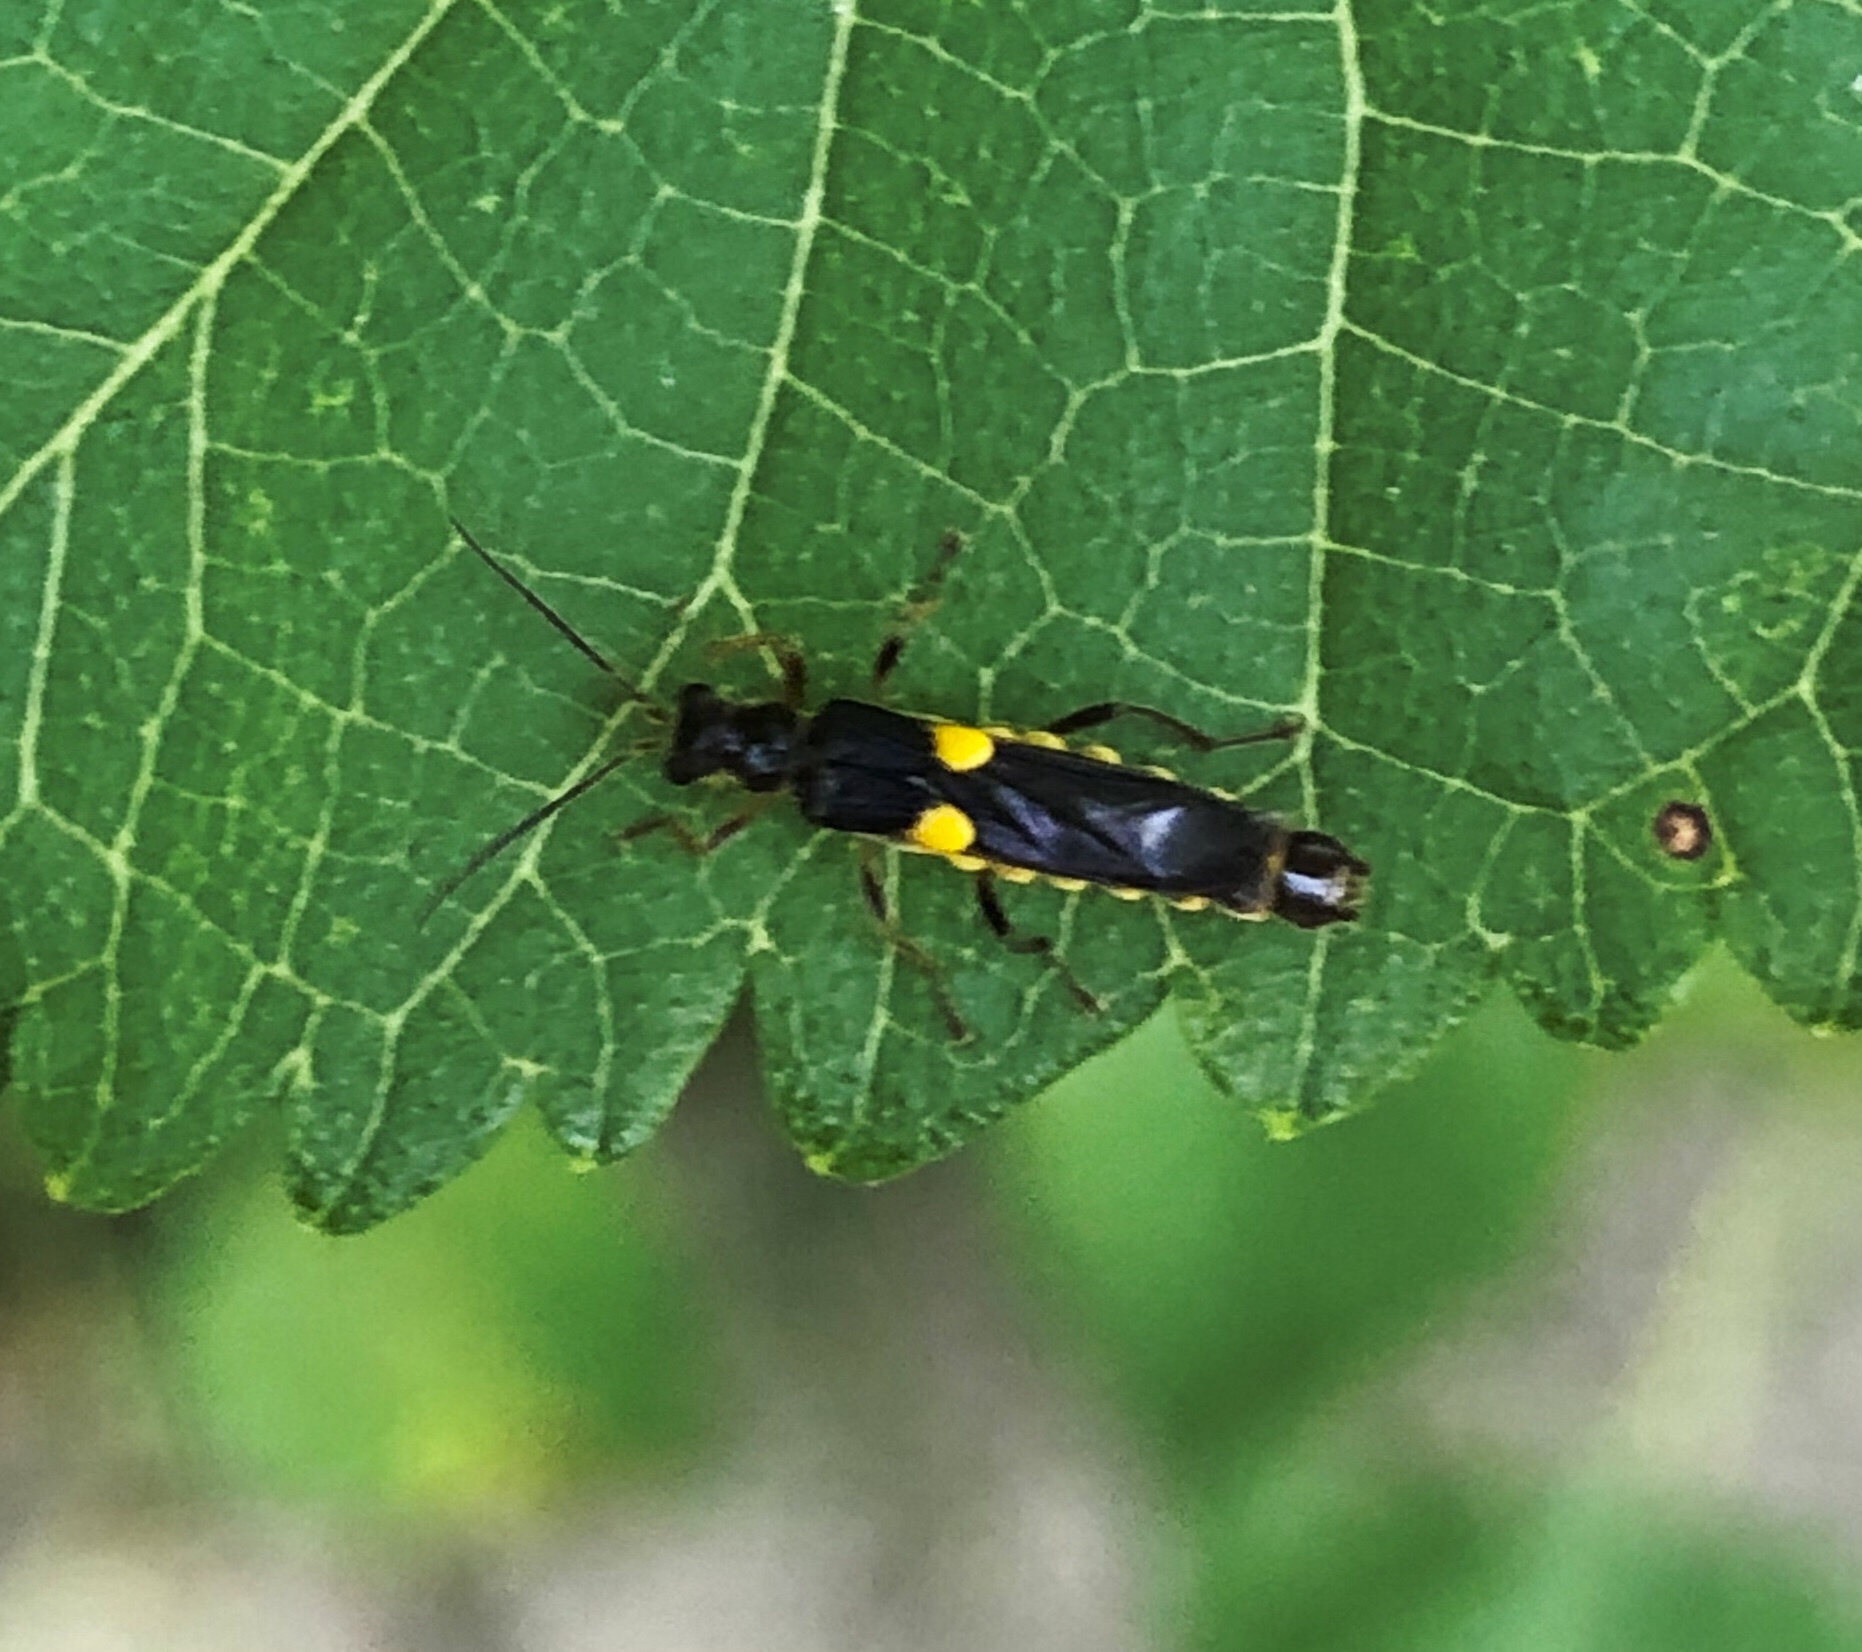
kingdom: Animalia
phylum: Arthropoda
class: Insecta
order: Coleoptera
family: Cantharidae
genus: Trypherus
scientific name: Trypherus
